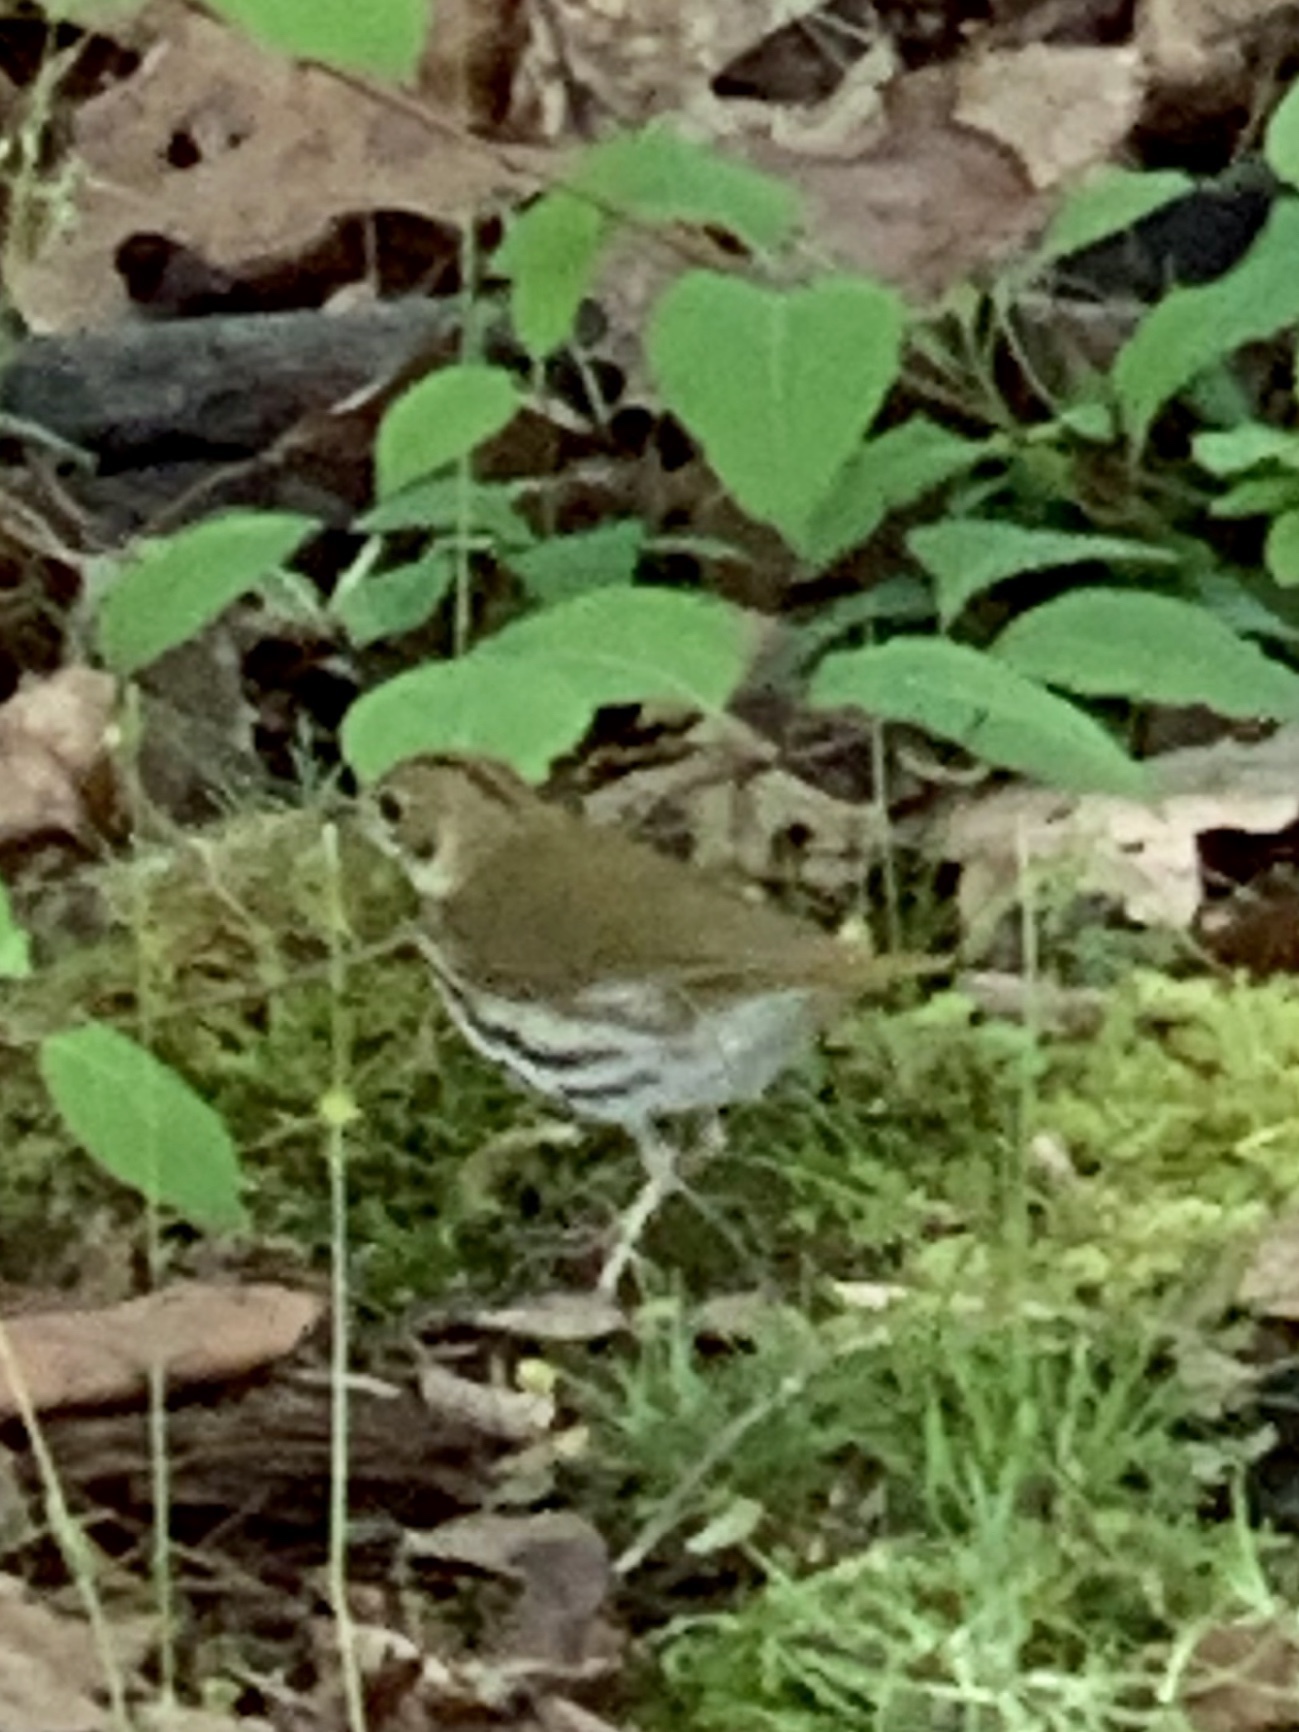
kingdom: Animalia
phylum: Chordata
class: Aves
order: Passeriformes
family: Parulidae
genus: Seiurus
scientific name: Seiurus aurocapilla
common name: Ovenbird
